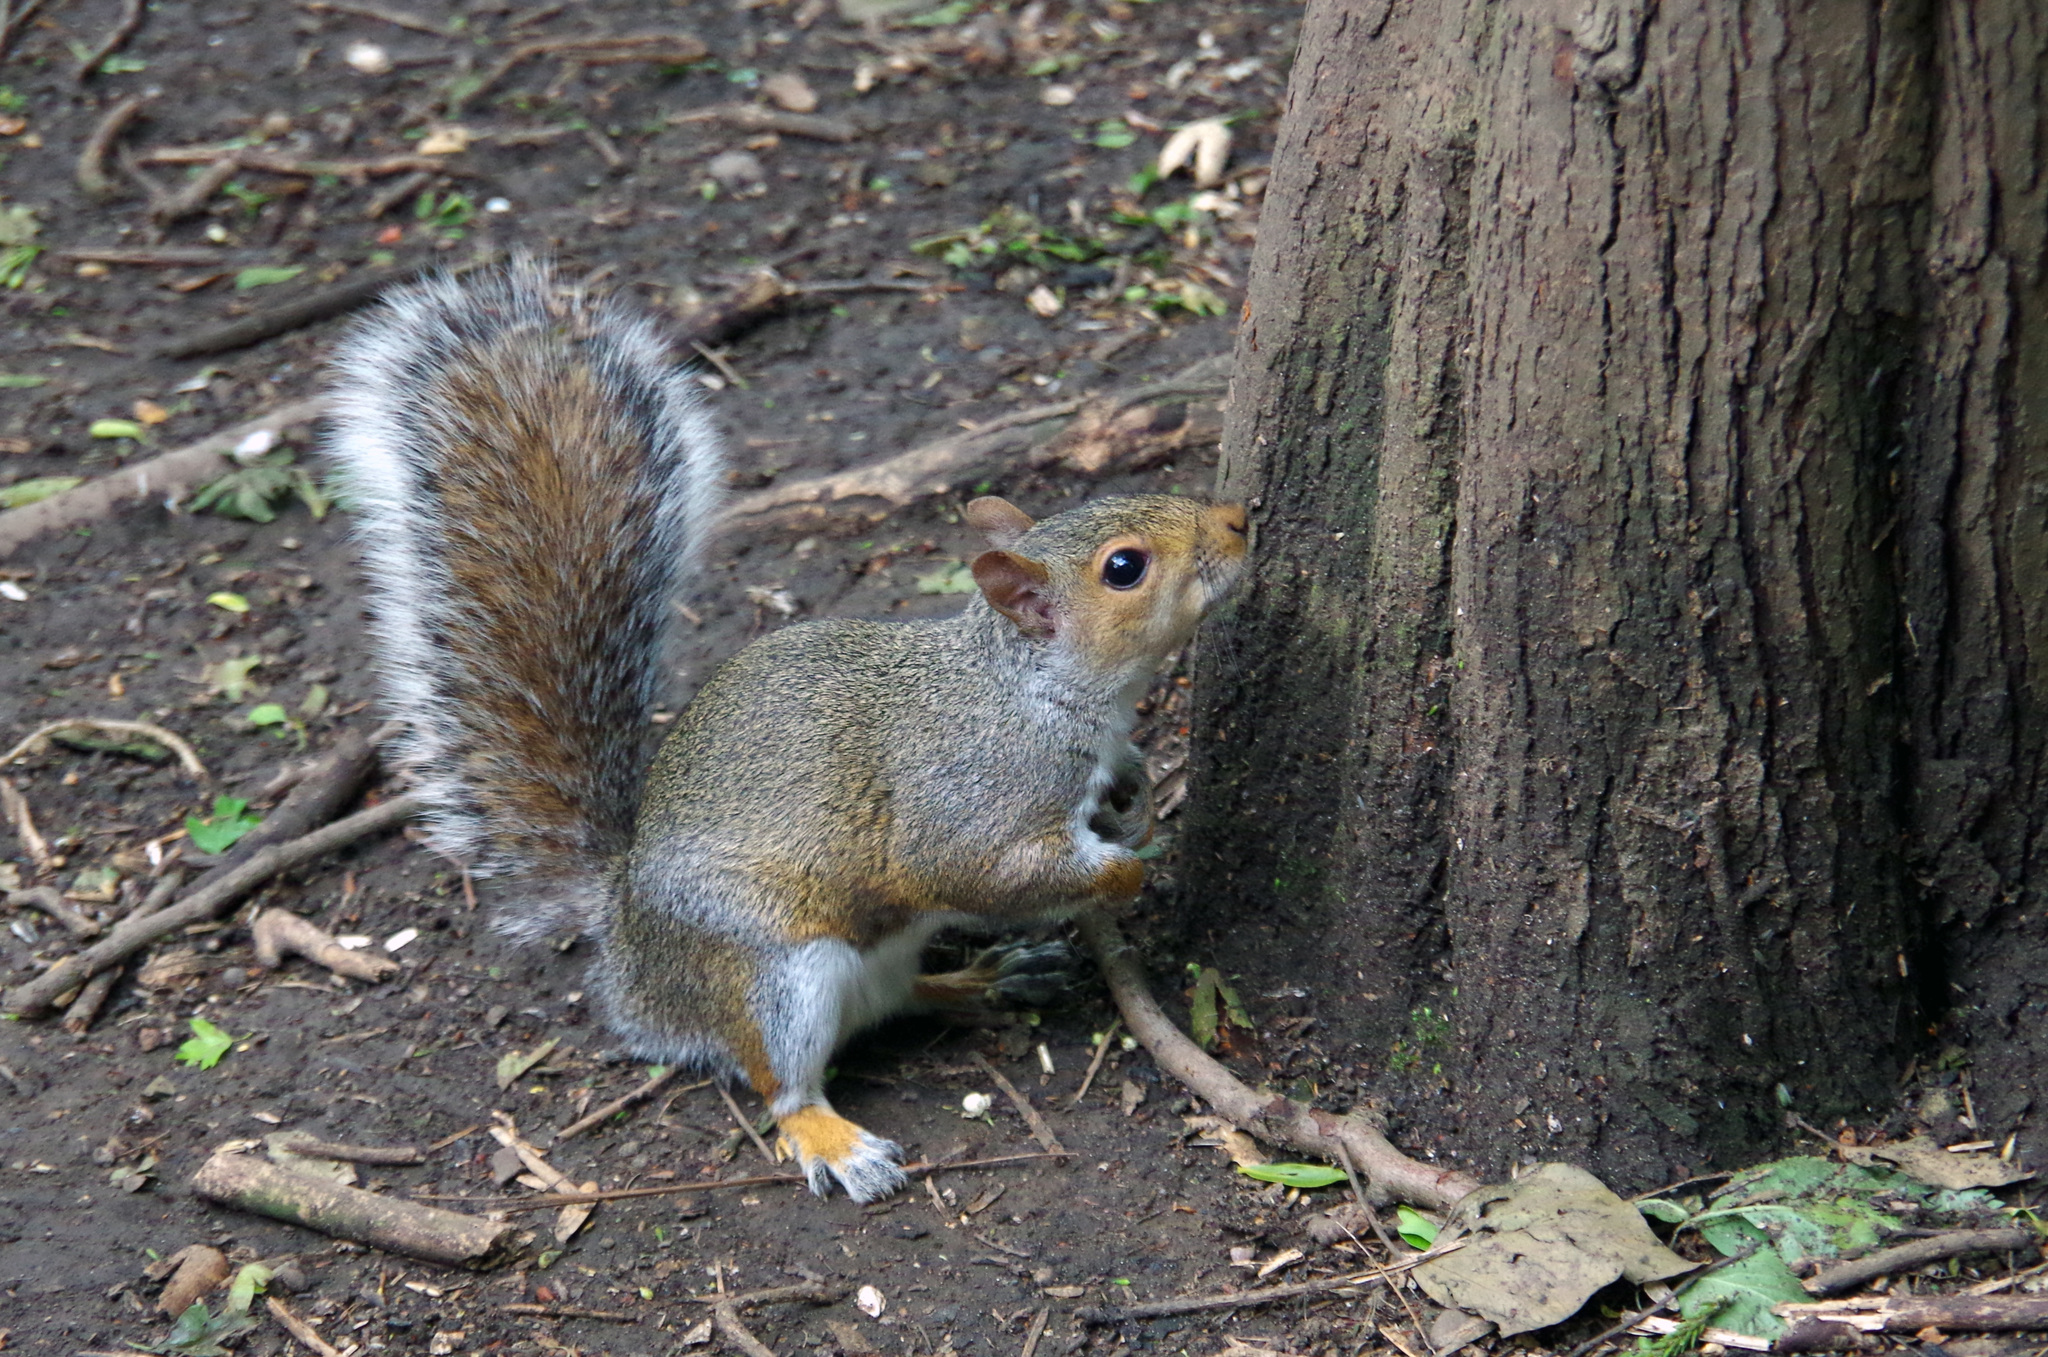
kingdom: Animalia
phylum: Chordata
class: Mammalia
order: Rodentia
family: Sciuridae
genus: Sciurus
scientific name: Sciurus carolinensis
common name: Eastern gray squirrel
